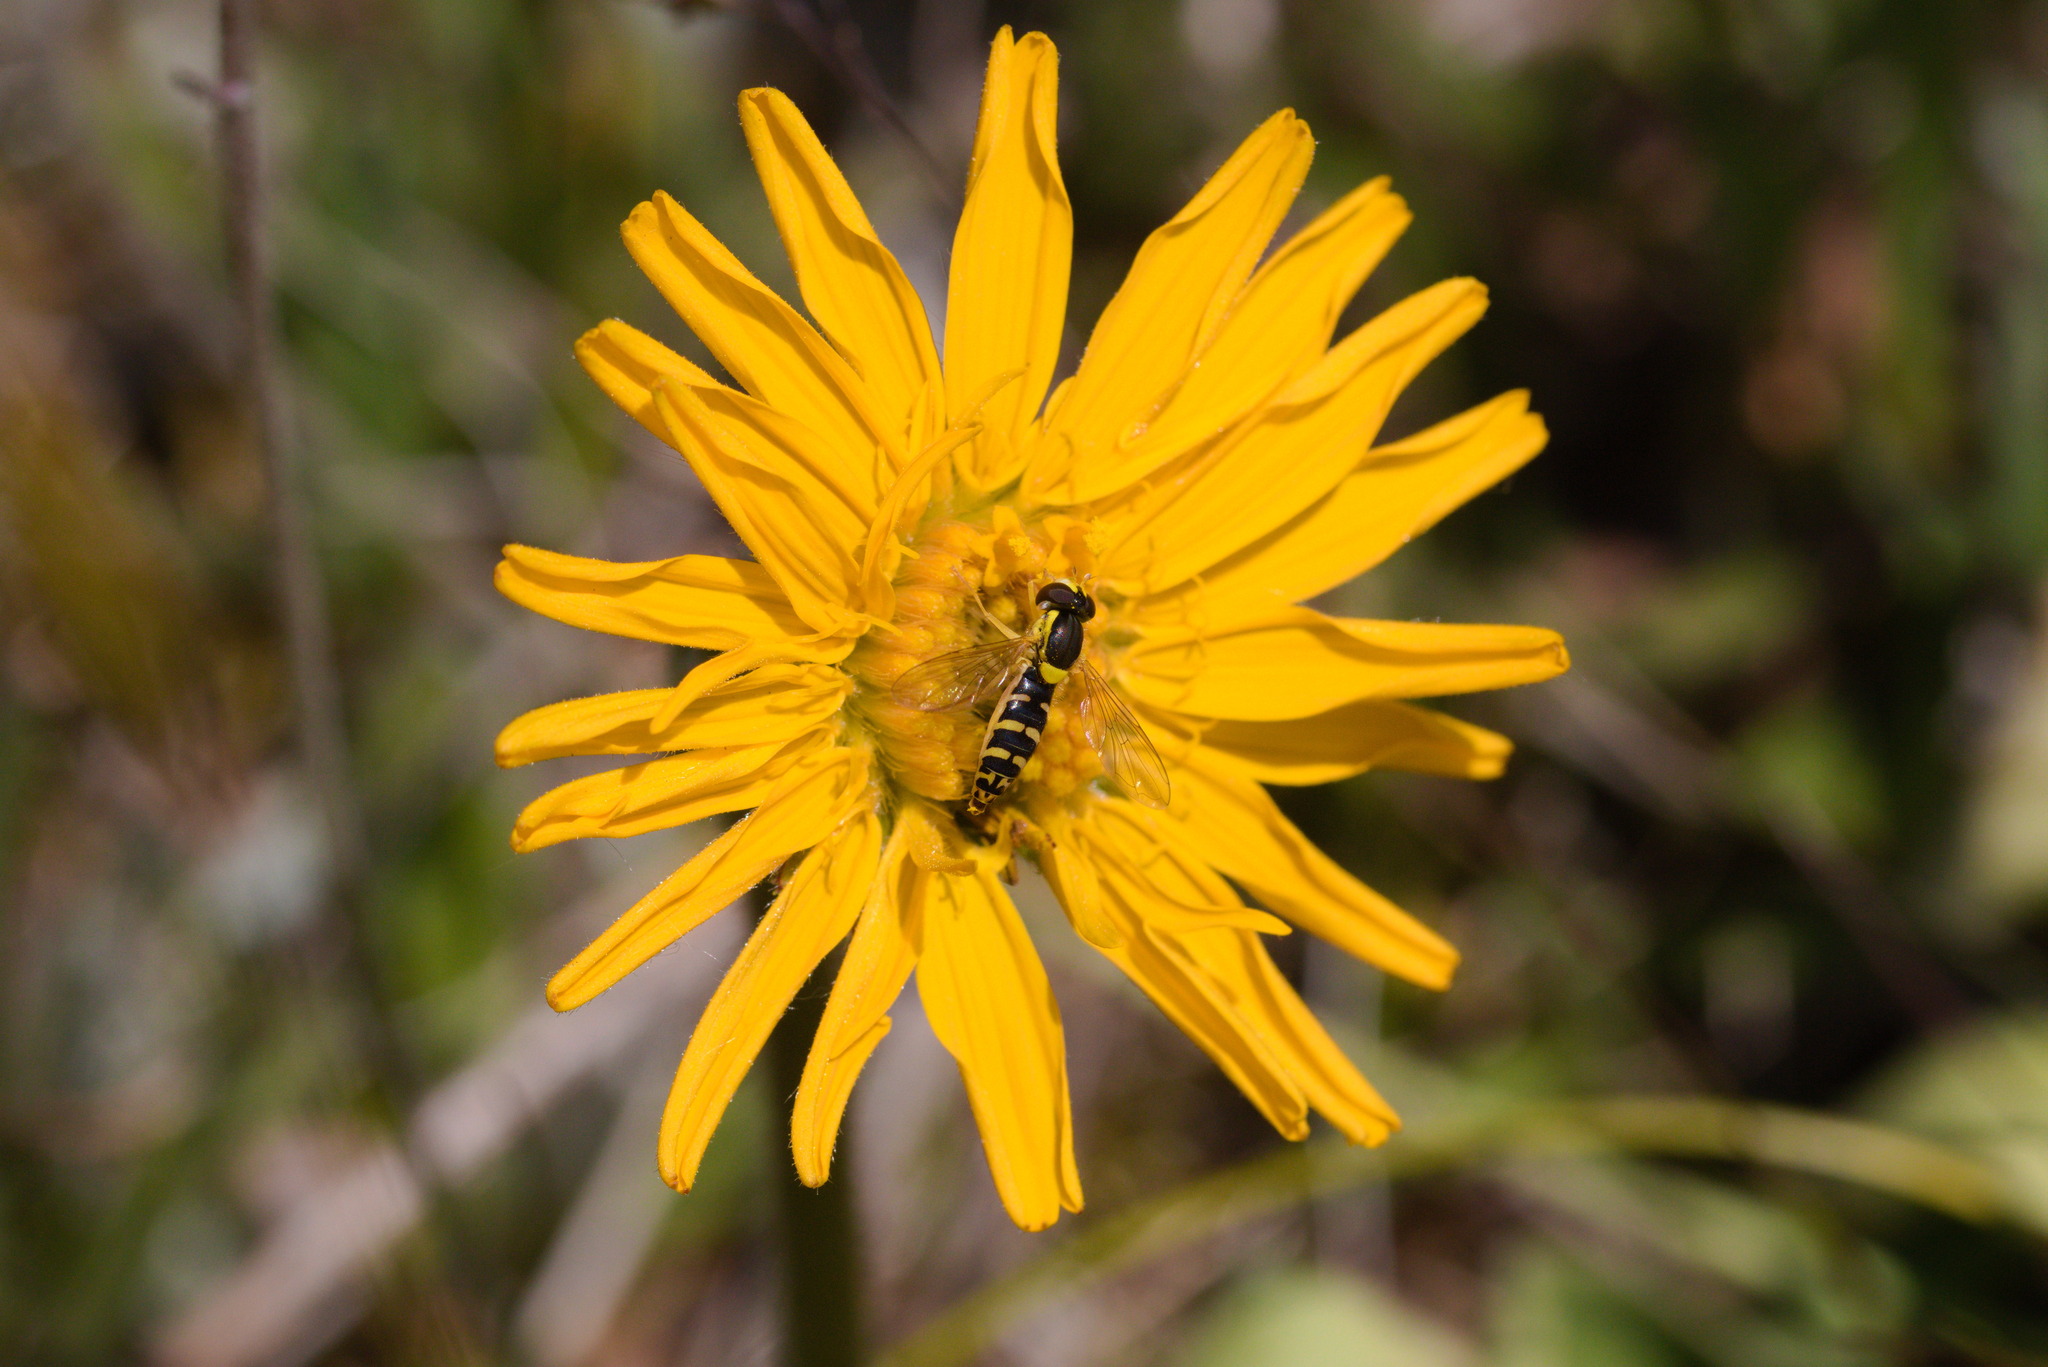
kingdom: Animalia
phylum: Arthropoda
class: Insecta
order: Diptera
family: Syrphidae
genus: Sphaerophoria
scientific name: Sphaerophoria
